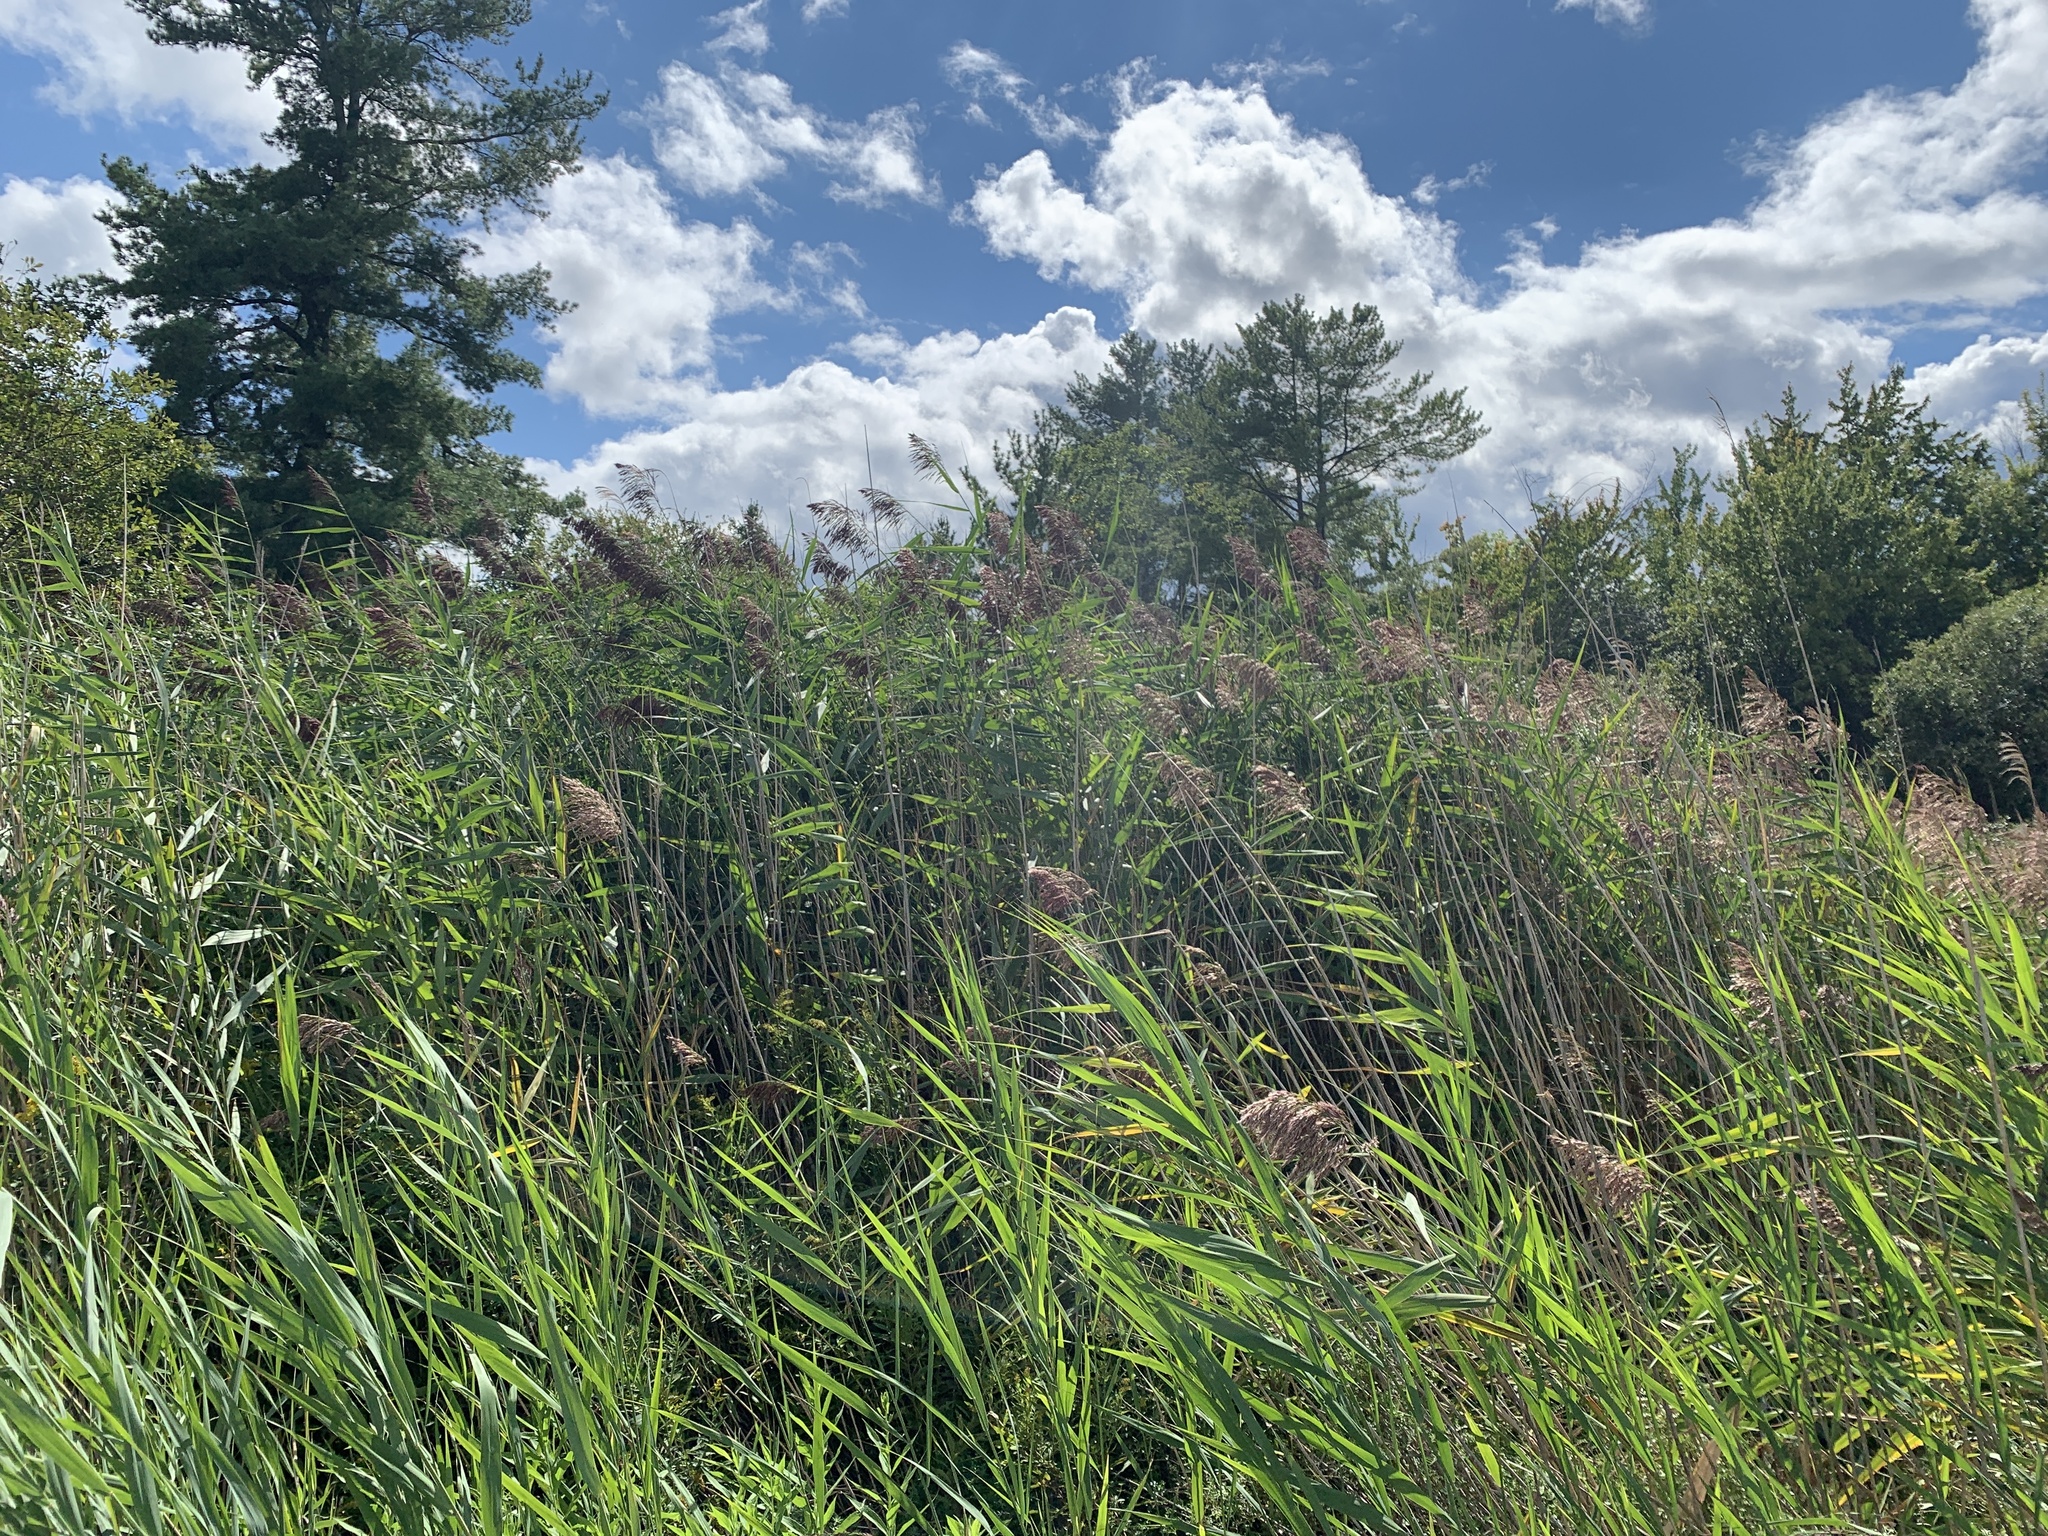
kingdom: Plantae
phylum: Tracheophyta
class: Liliopsida
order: Poales
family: Poaceae
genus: Phragmites
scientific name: Phragmites australis
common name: Common reed
